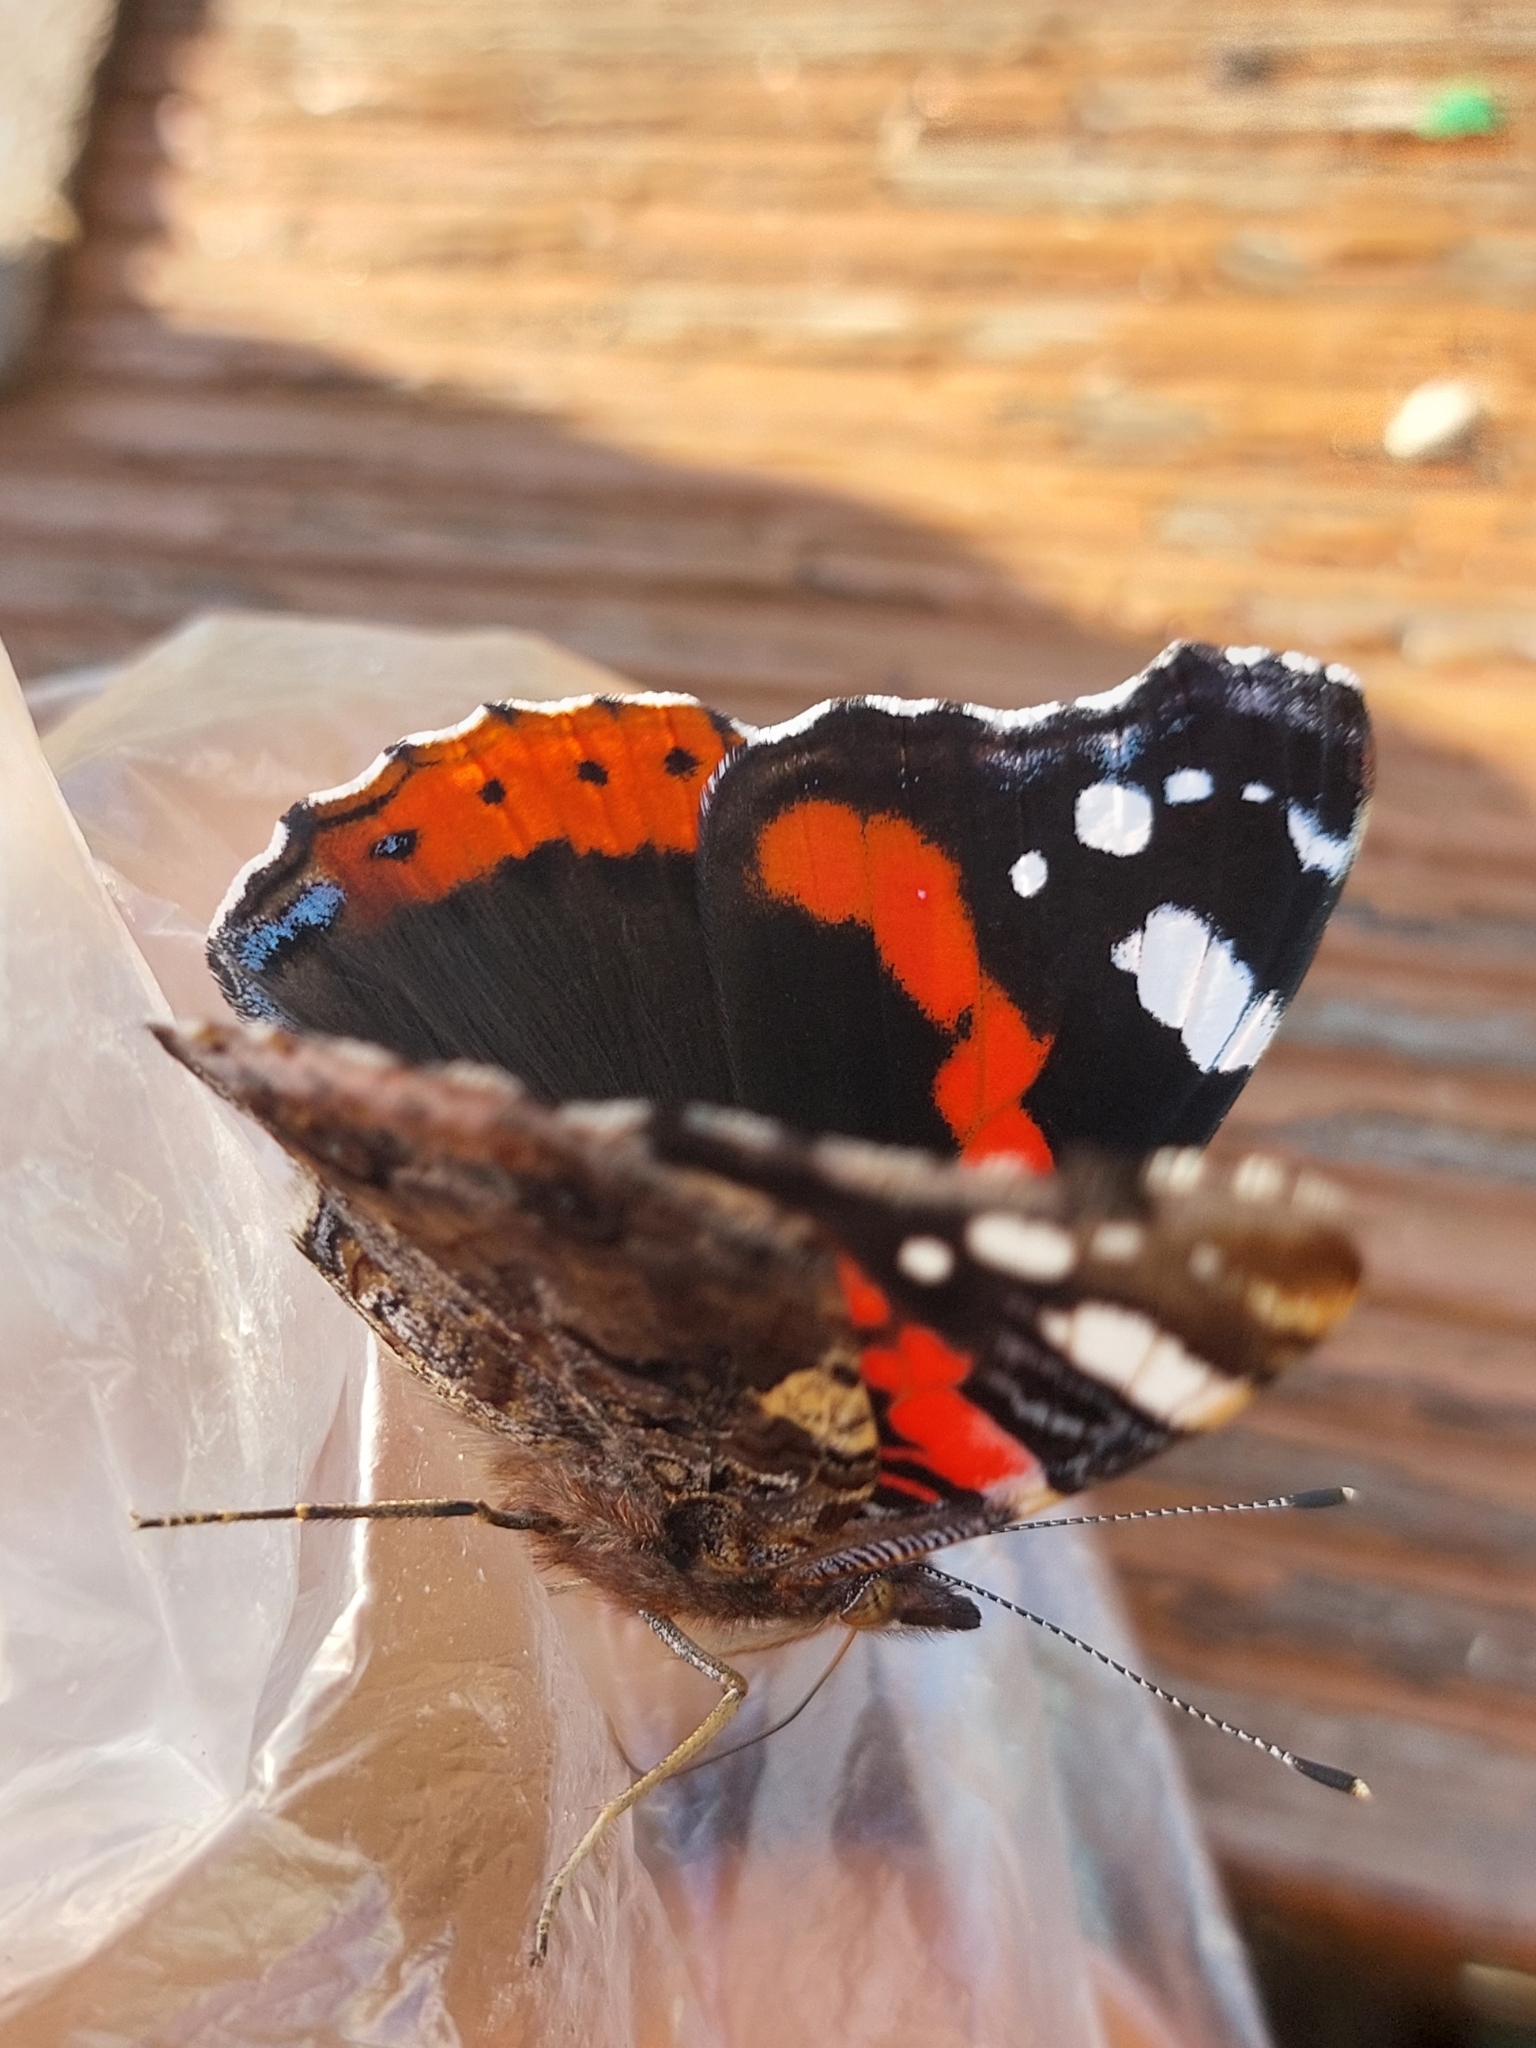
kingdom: Animalia
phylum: Arthropoda
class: Insecta
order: Lepidoptera
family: Nymphalidae
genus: Vanessa
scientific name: Vanessa atalanta
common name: Red admiral
